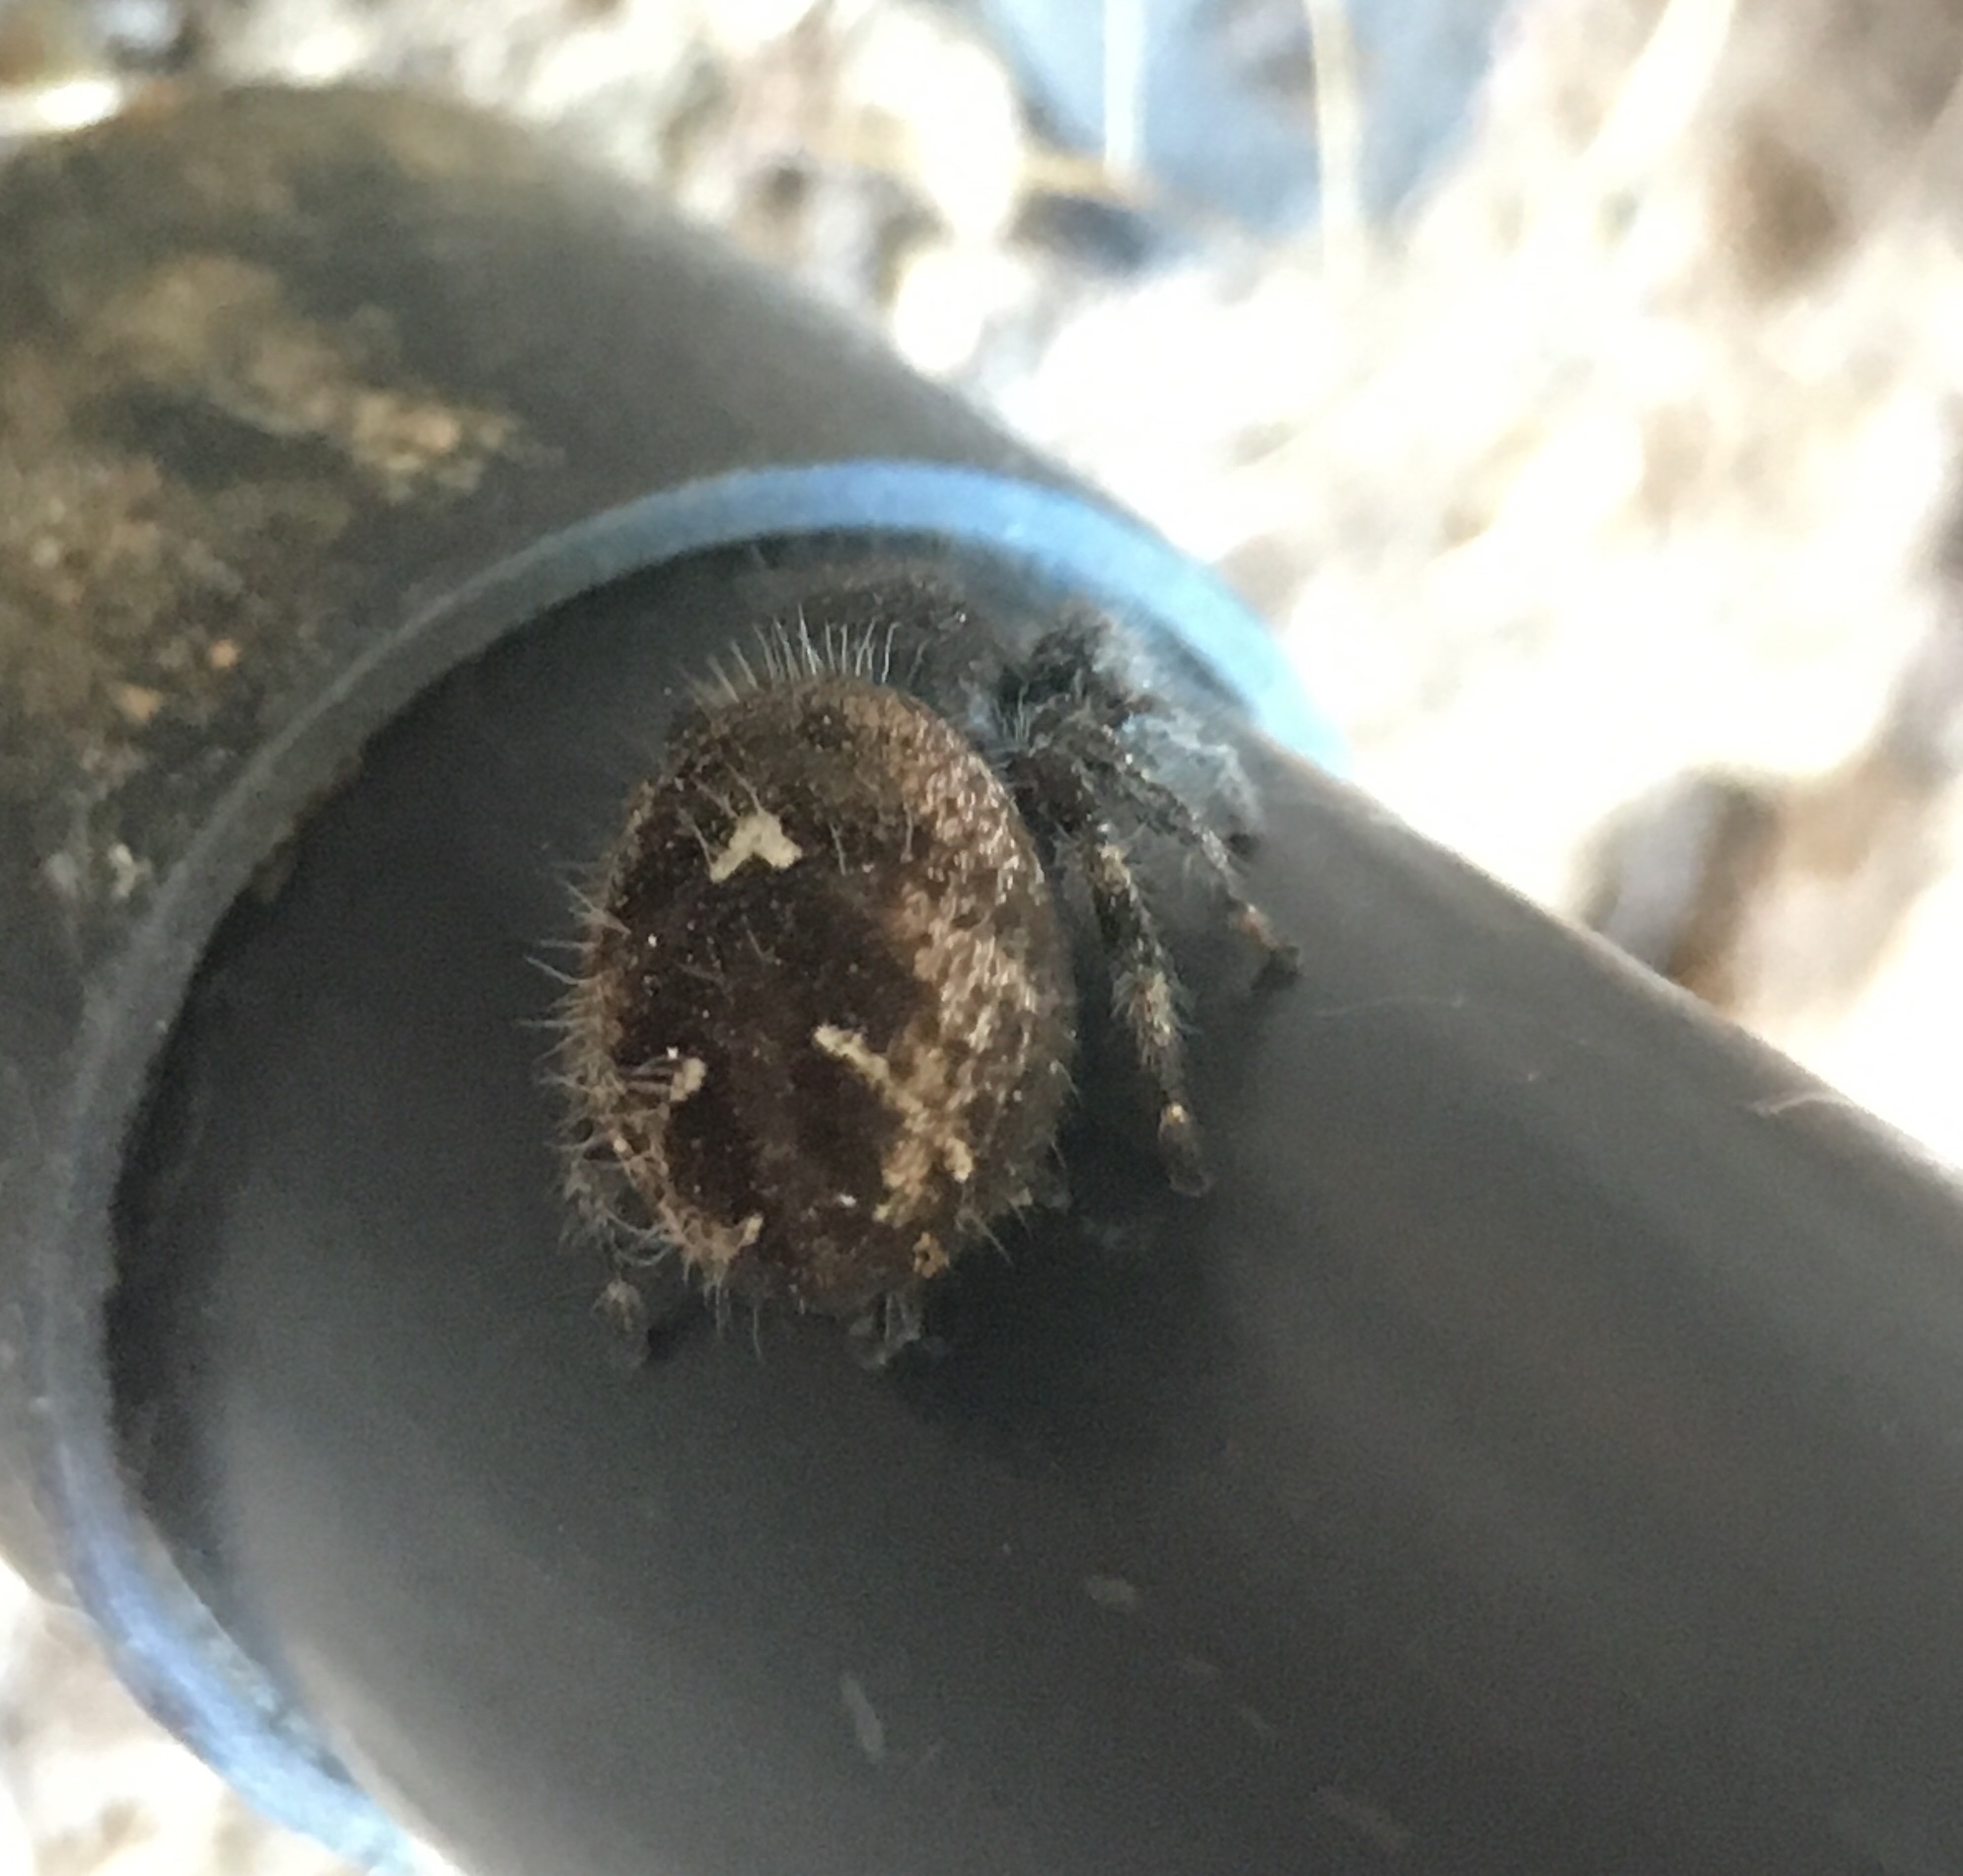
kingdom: Animalia
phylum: Arthropoda
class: Arachnida
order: Araneae
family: Salticidae
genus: Phidippus
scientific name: Phidippus audax
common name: Bold jumper
